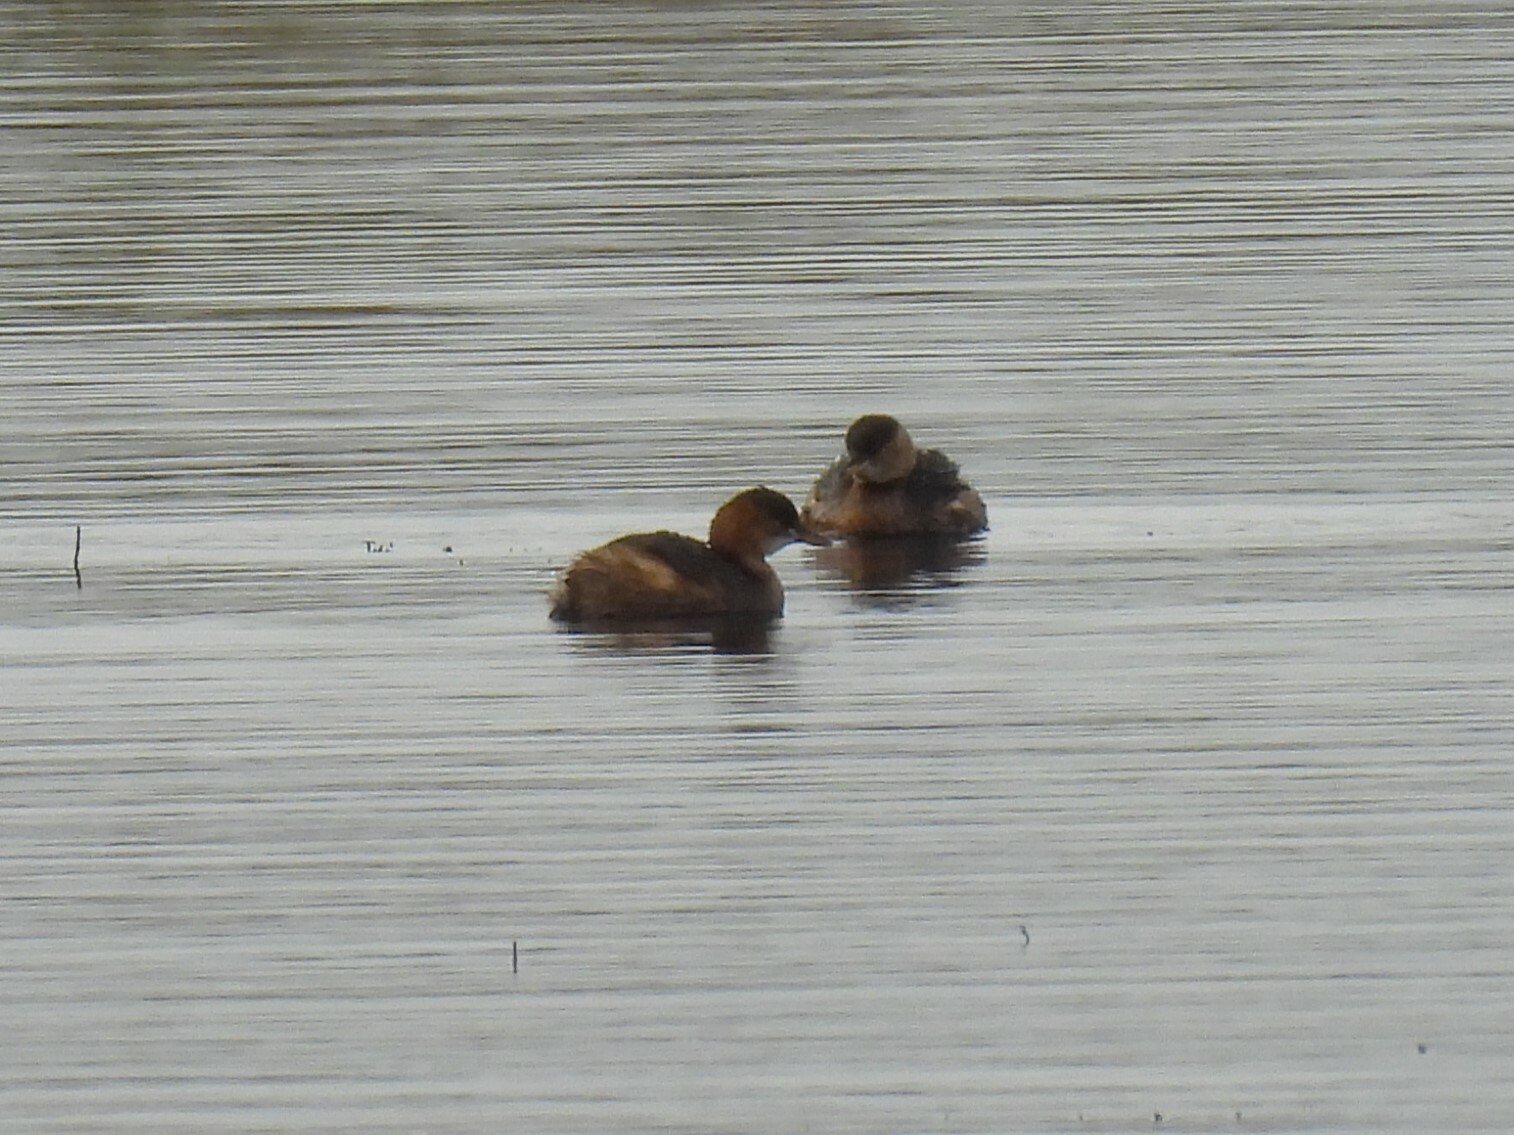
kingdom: Animalia
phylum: Chordata
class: Aves
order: Podicipediformes
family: Podicipedidae
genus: Tachybaptus
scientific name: Tachybaptus ruficollis
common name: Little grebe
